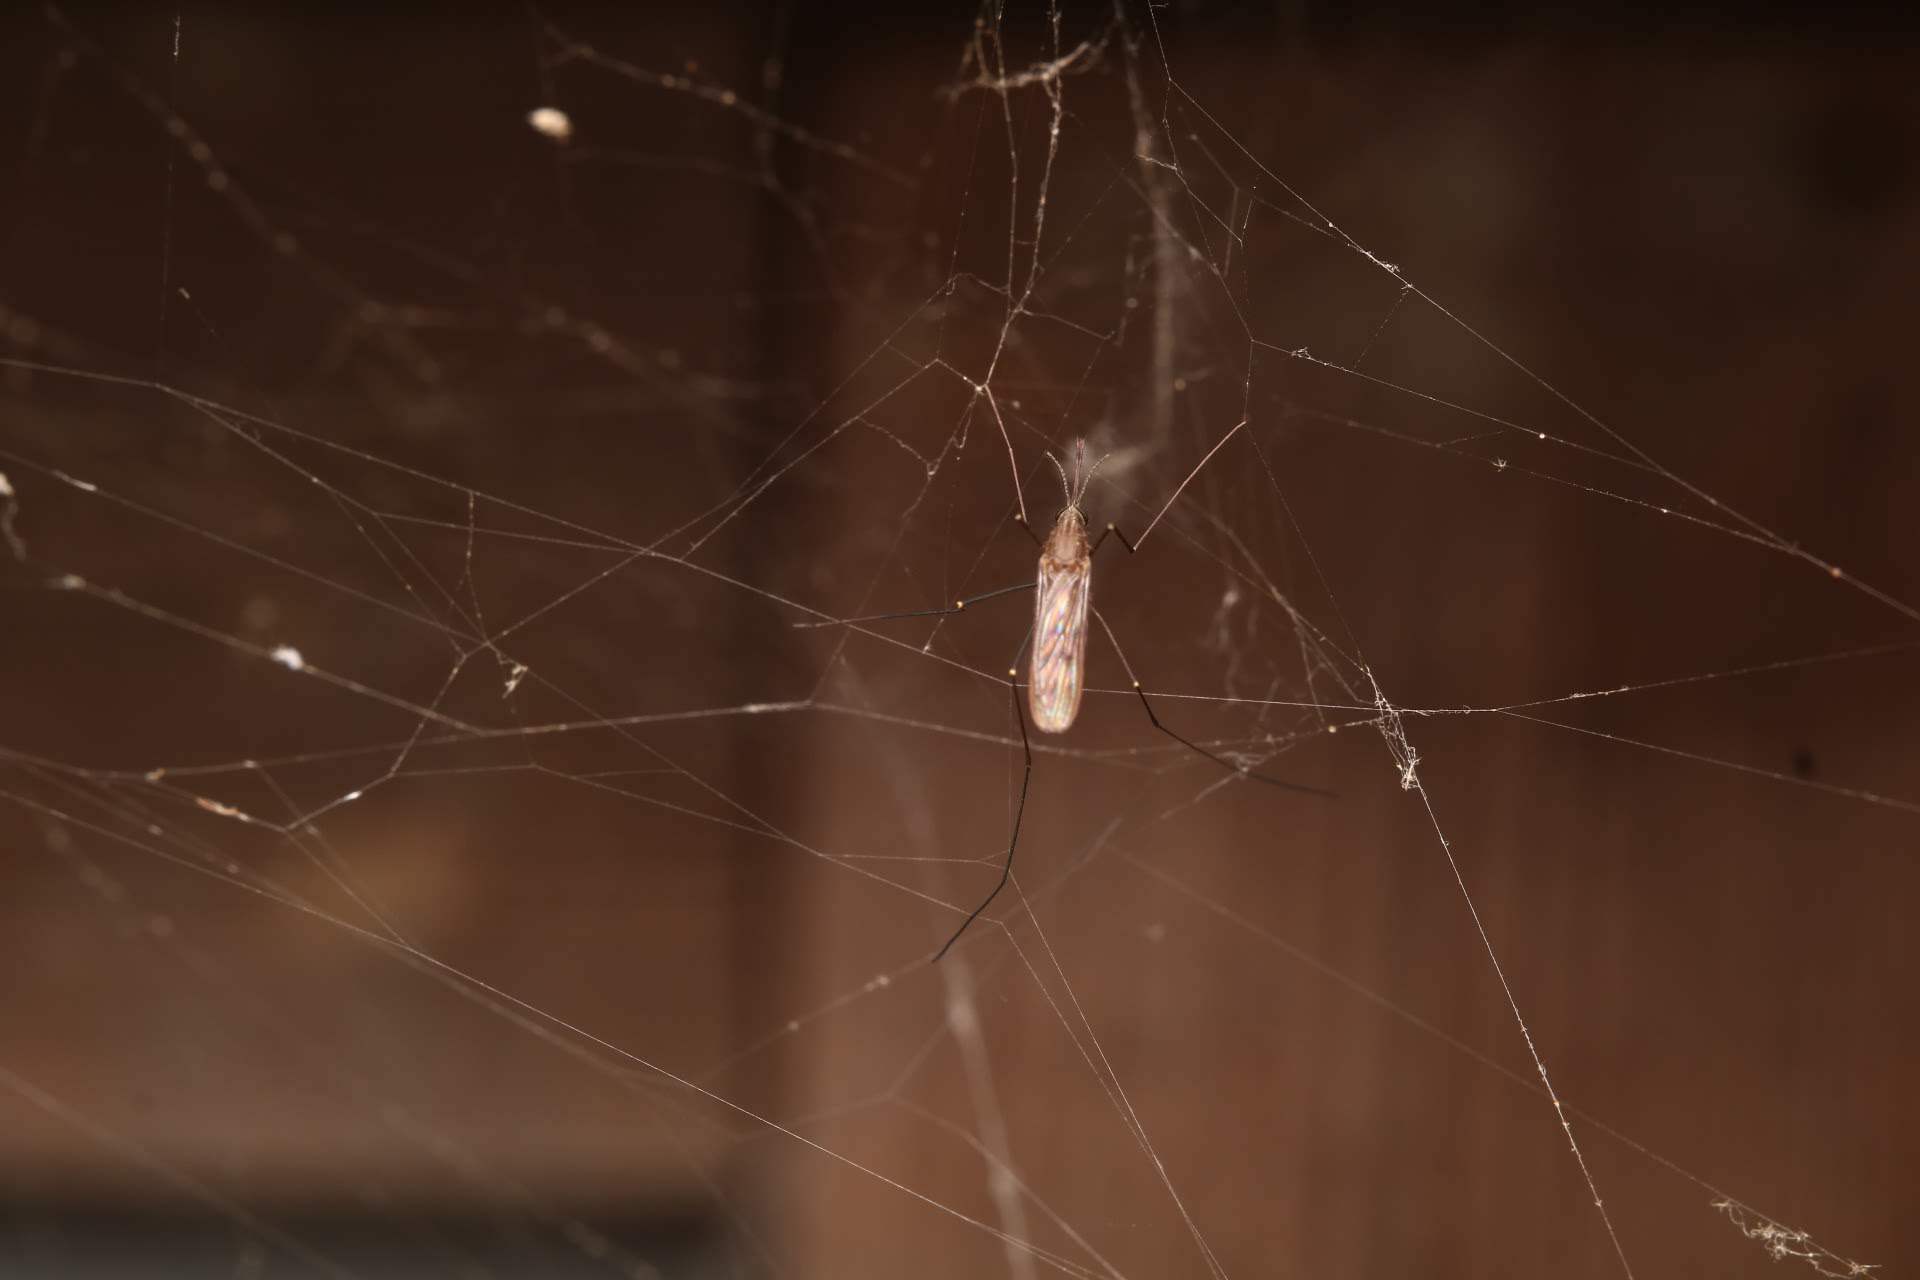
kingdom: Animalia
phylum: Arthropoda
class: Insecta
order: Diptera
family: Culicidae
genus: Anopheles
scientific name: Anopheles
